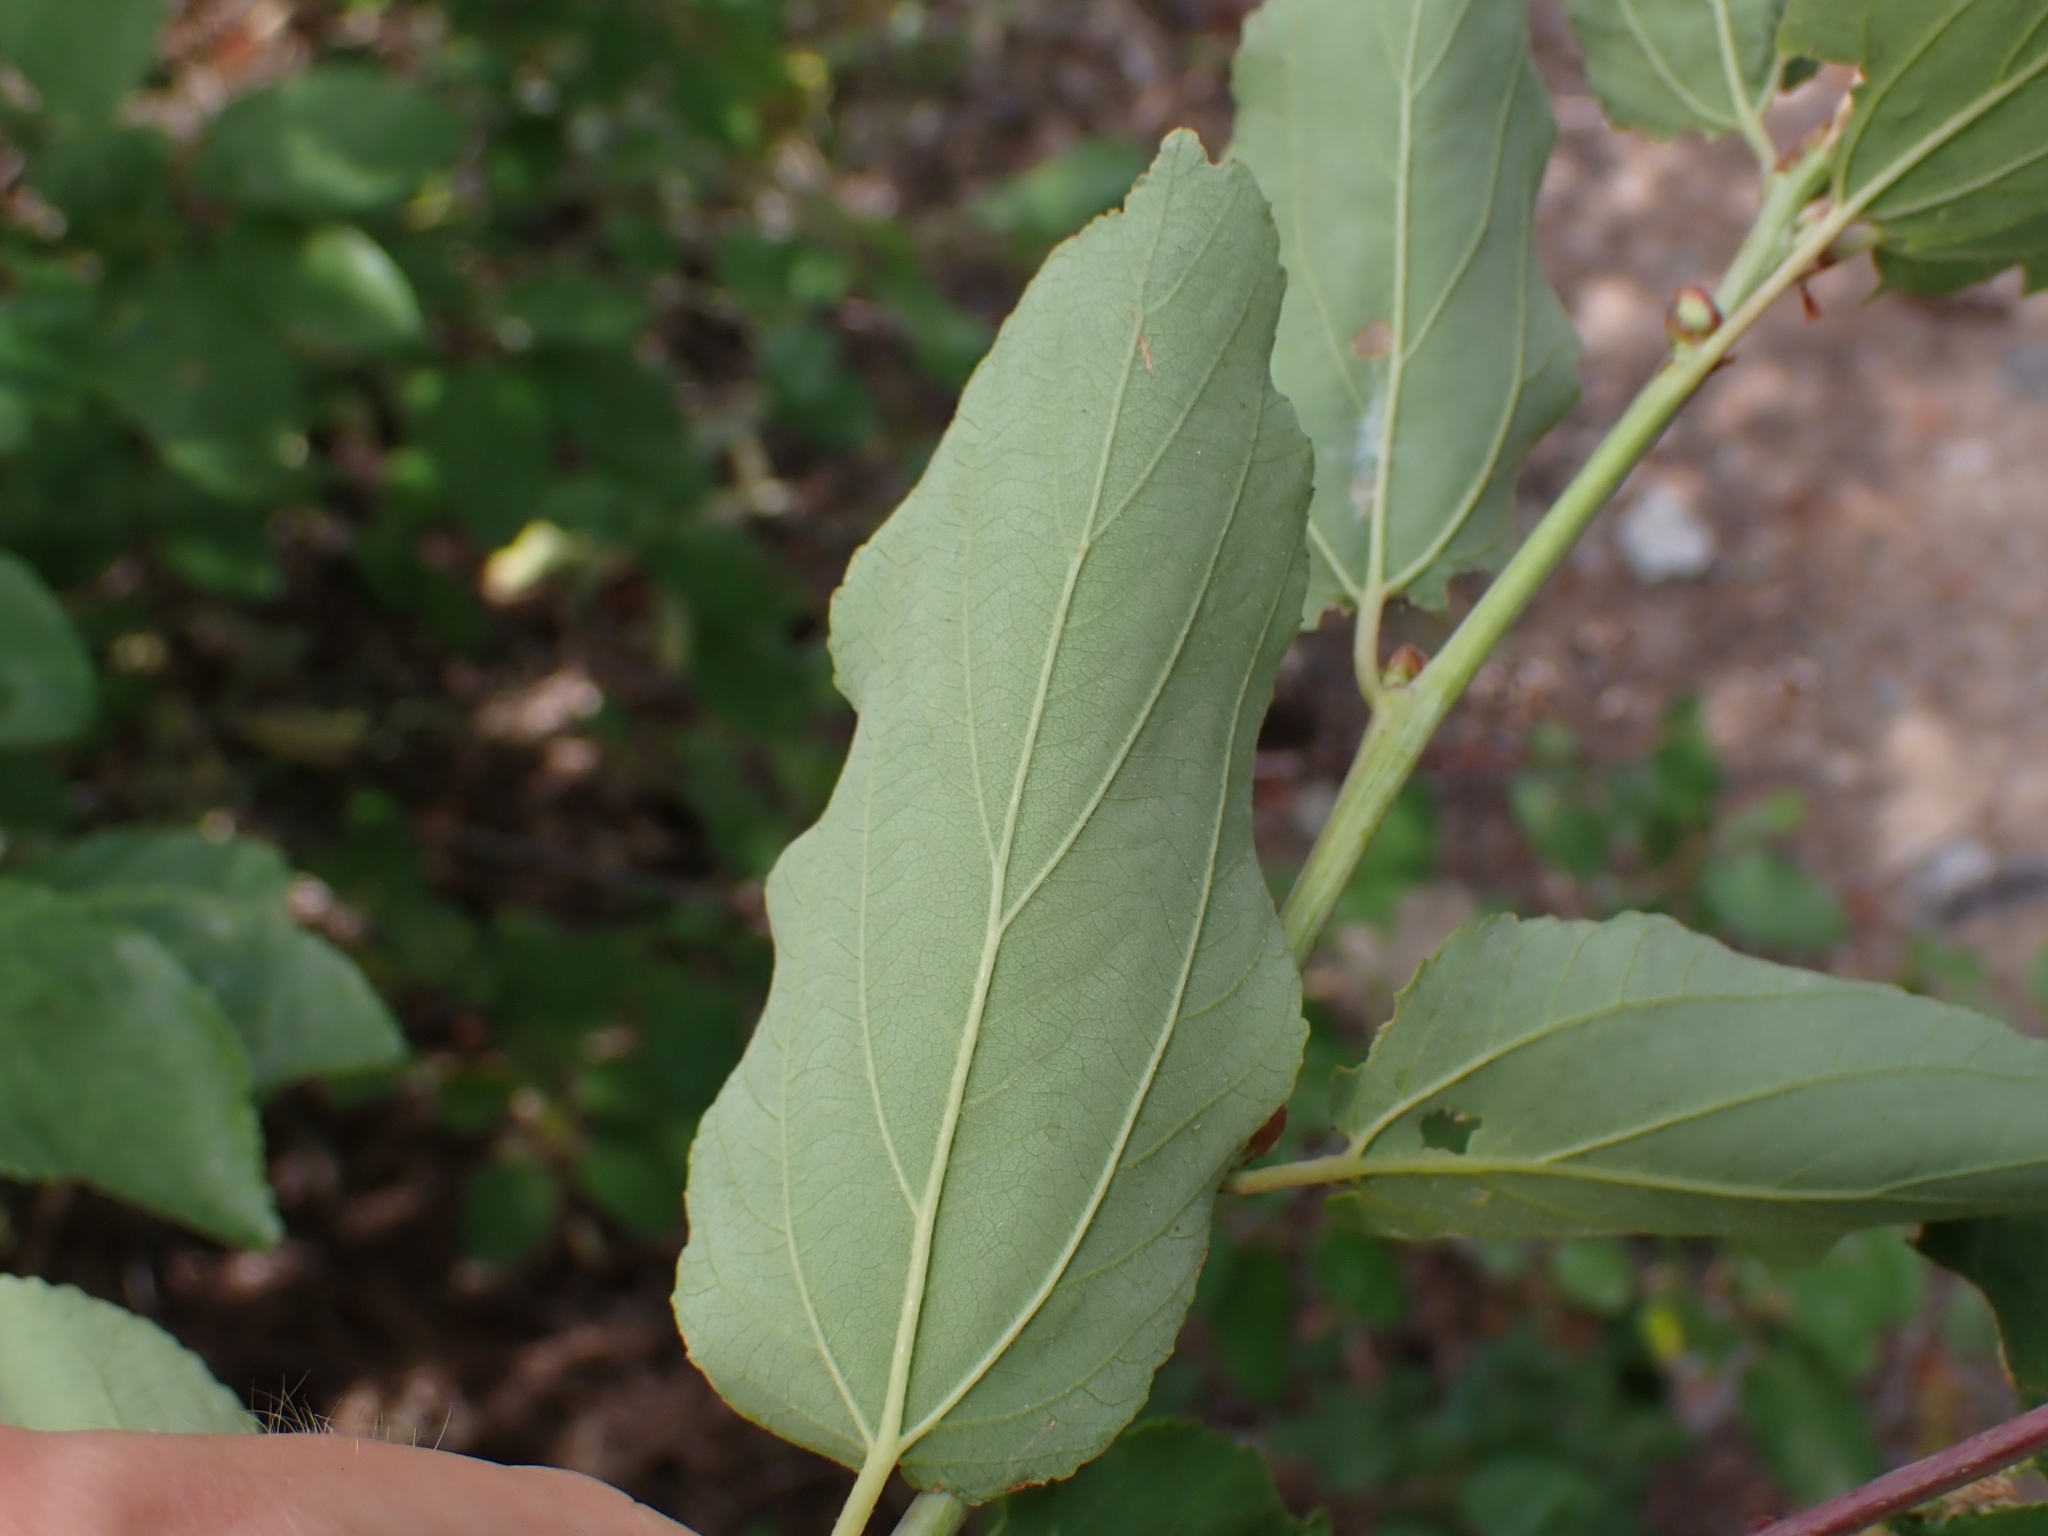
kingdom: Plantae
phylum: Tracheophyta
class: Magnoliopsida
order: Rosales
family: Rhamnaceae
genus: Ceanothus
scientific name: Ceanothus sanguineus
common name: Teatree
